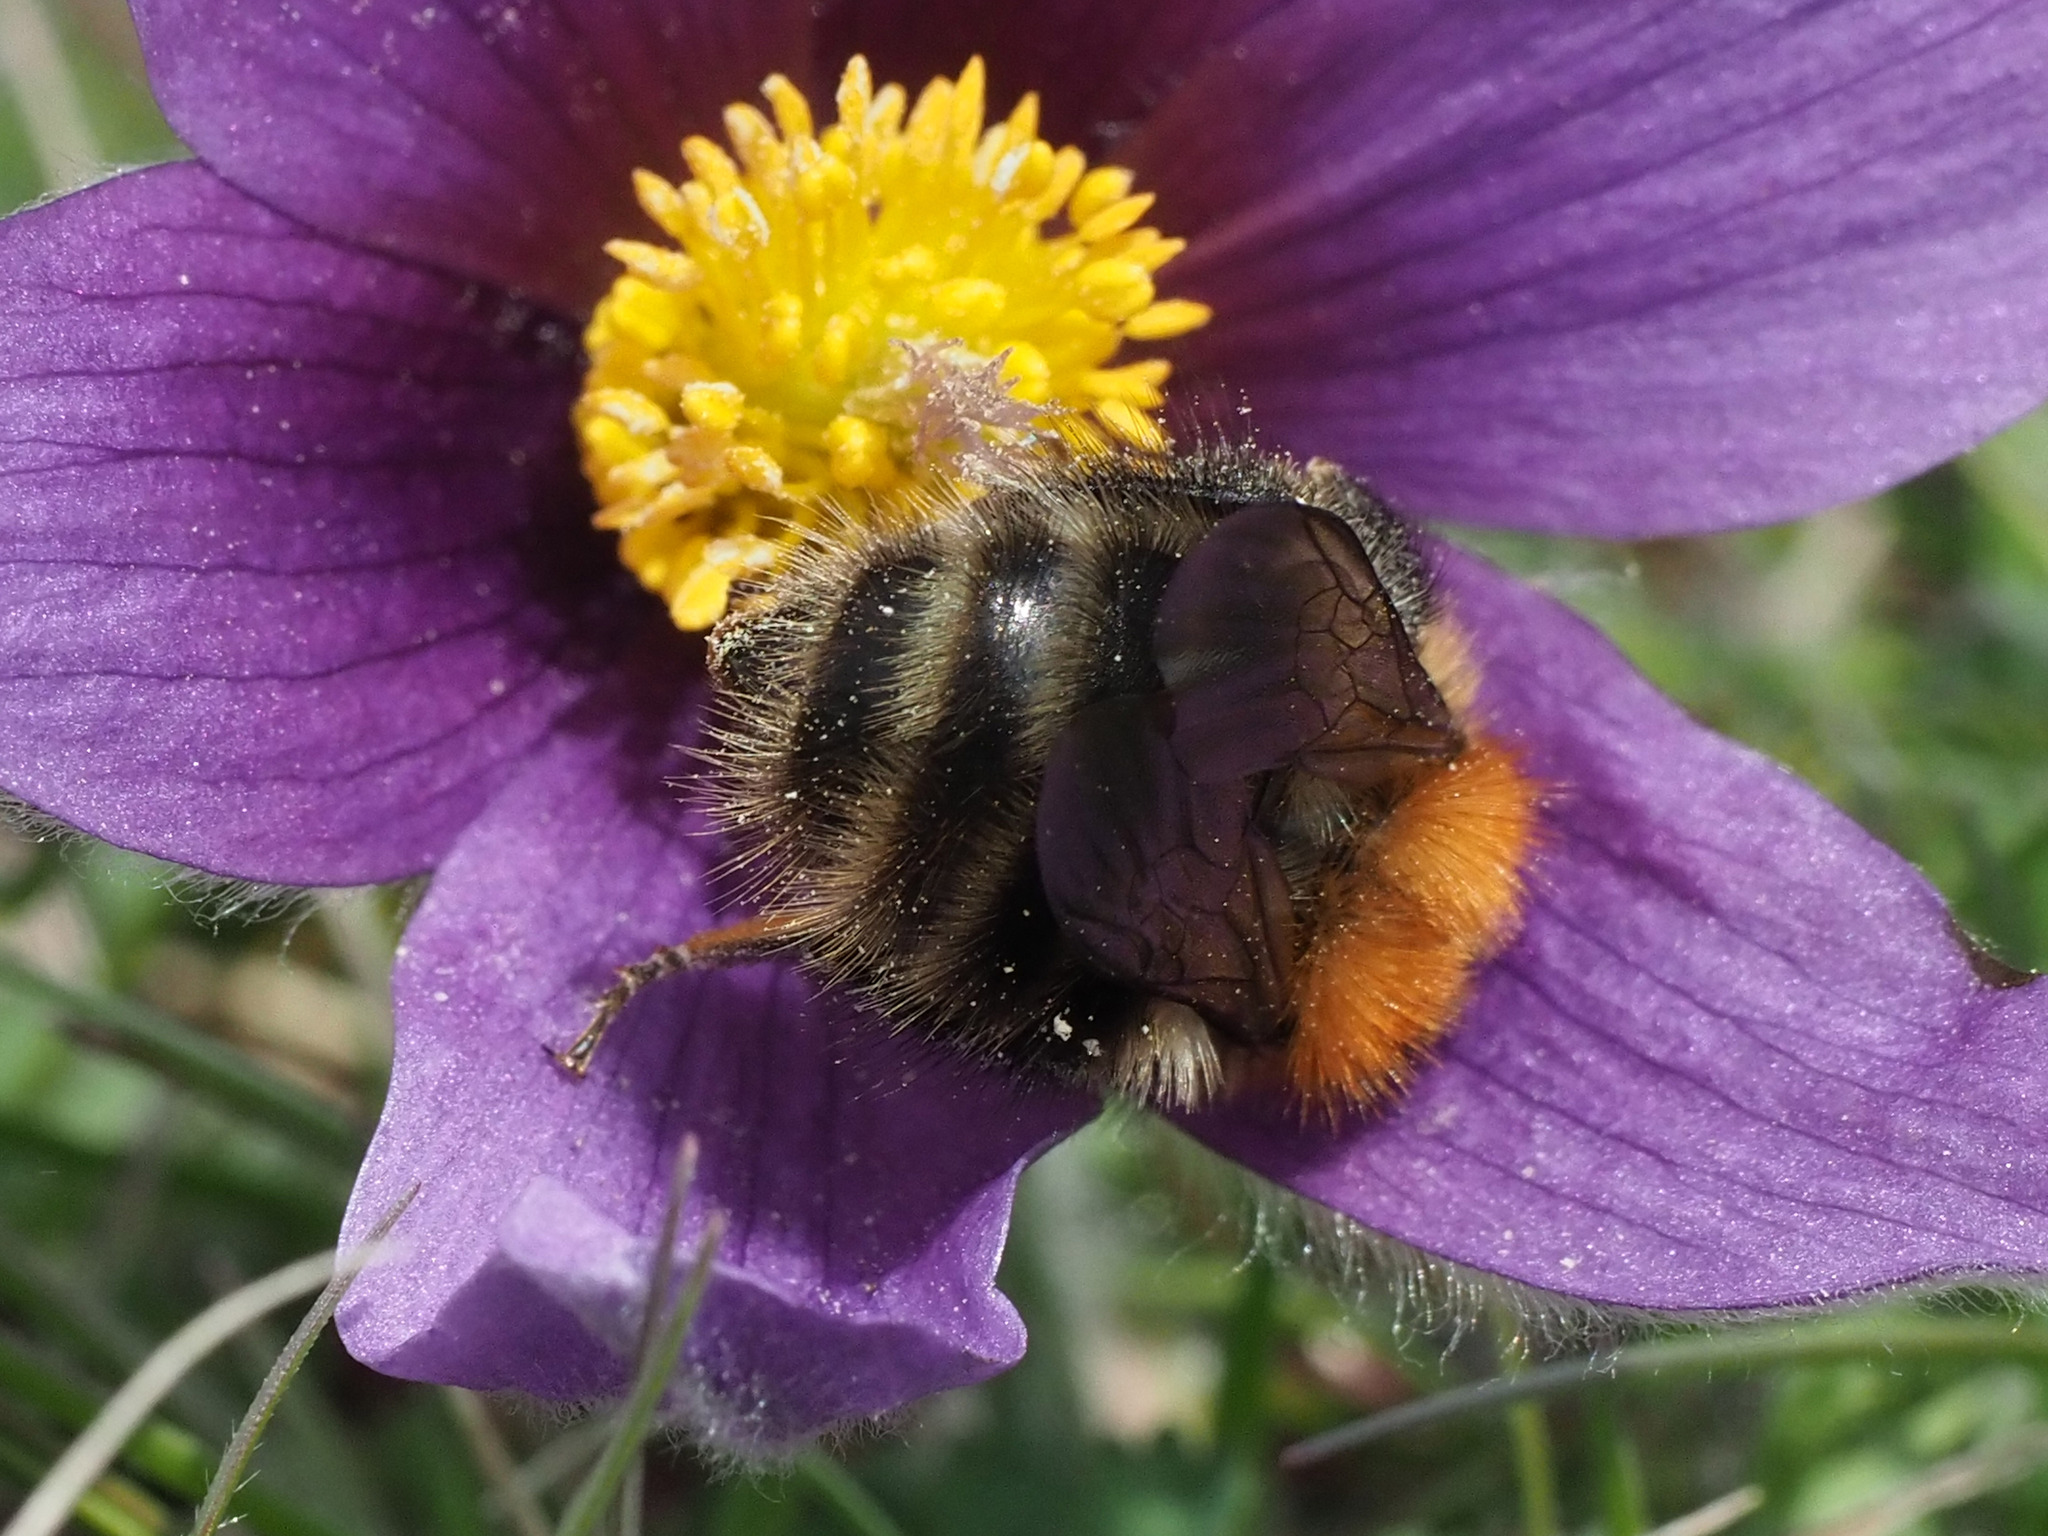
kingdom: Animalia
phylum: Arthropoda
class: Insecta
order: Hymenoptera
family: Apidae
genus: Bombus
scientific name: Bombus pascuorum
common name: Common carder bee
